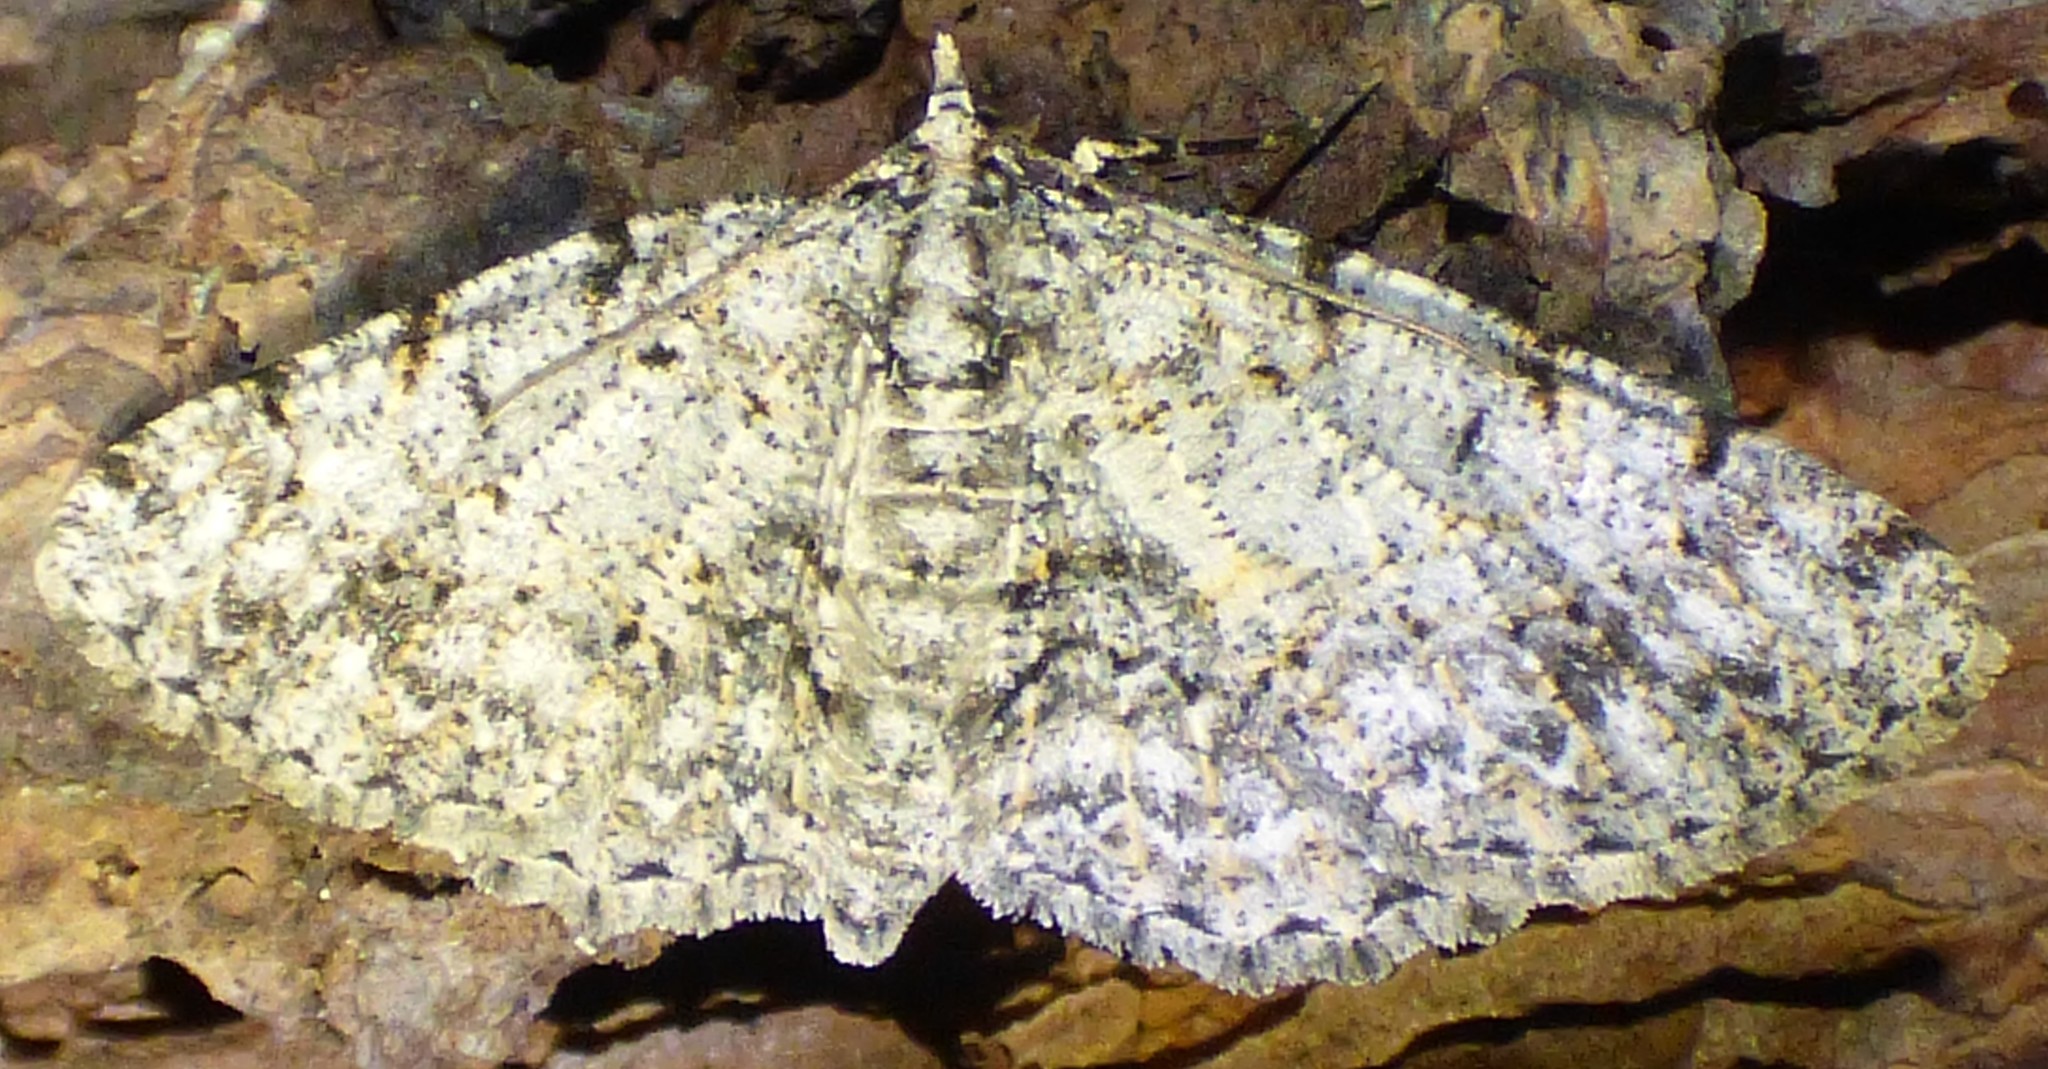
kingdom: Animalia
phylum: Arthropoda
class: Insecta
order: Lepidoptera
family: Geometridae
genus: Protoboarmia
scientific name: Protoboarmia porcelaria
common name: Porcelain gray
